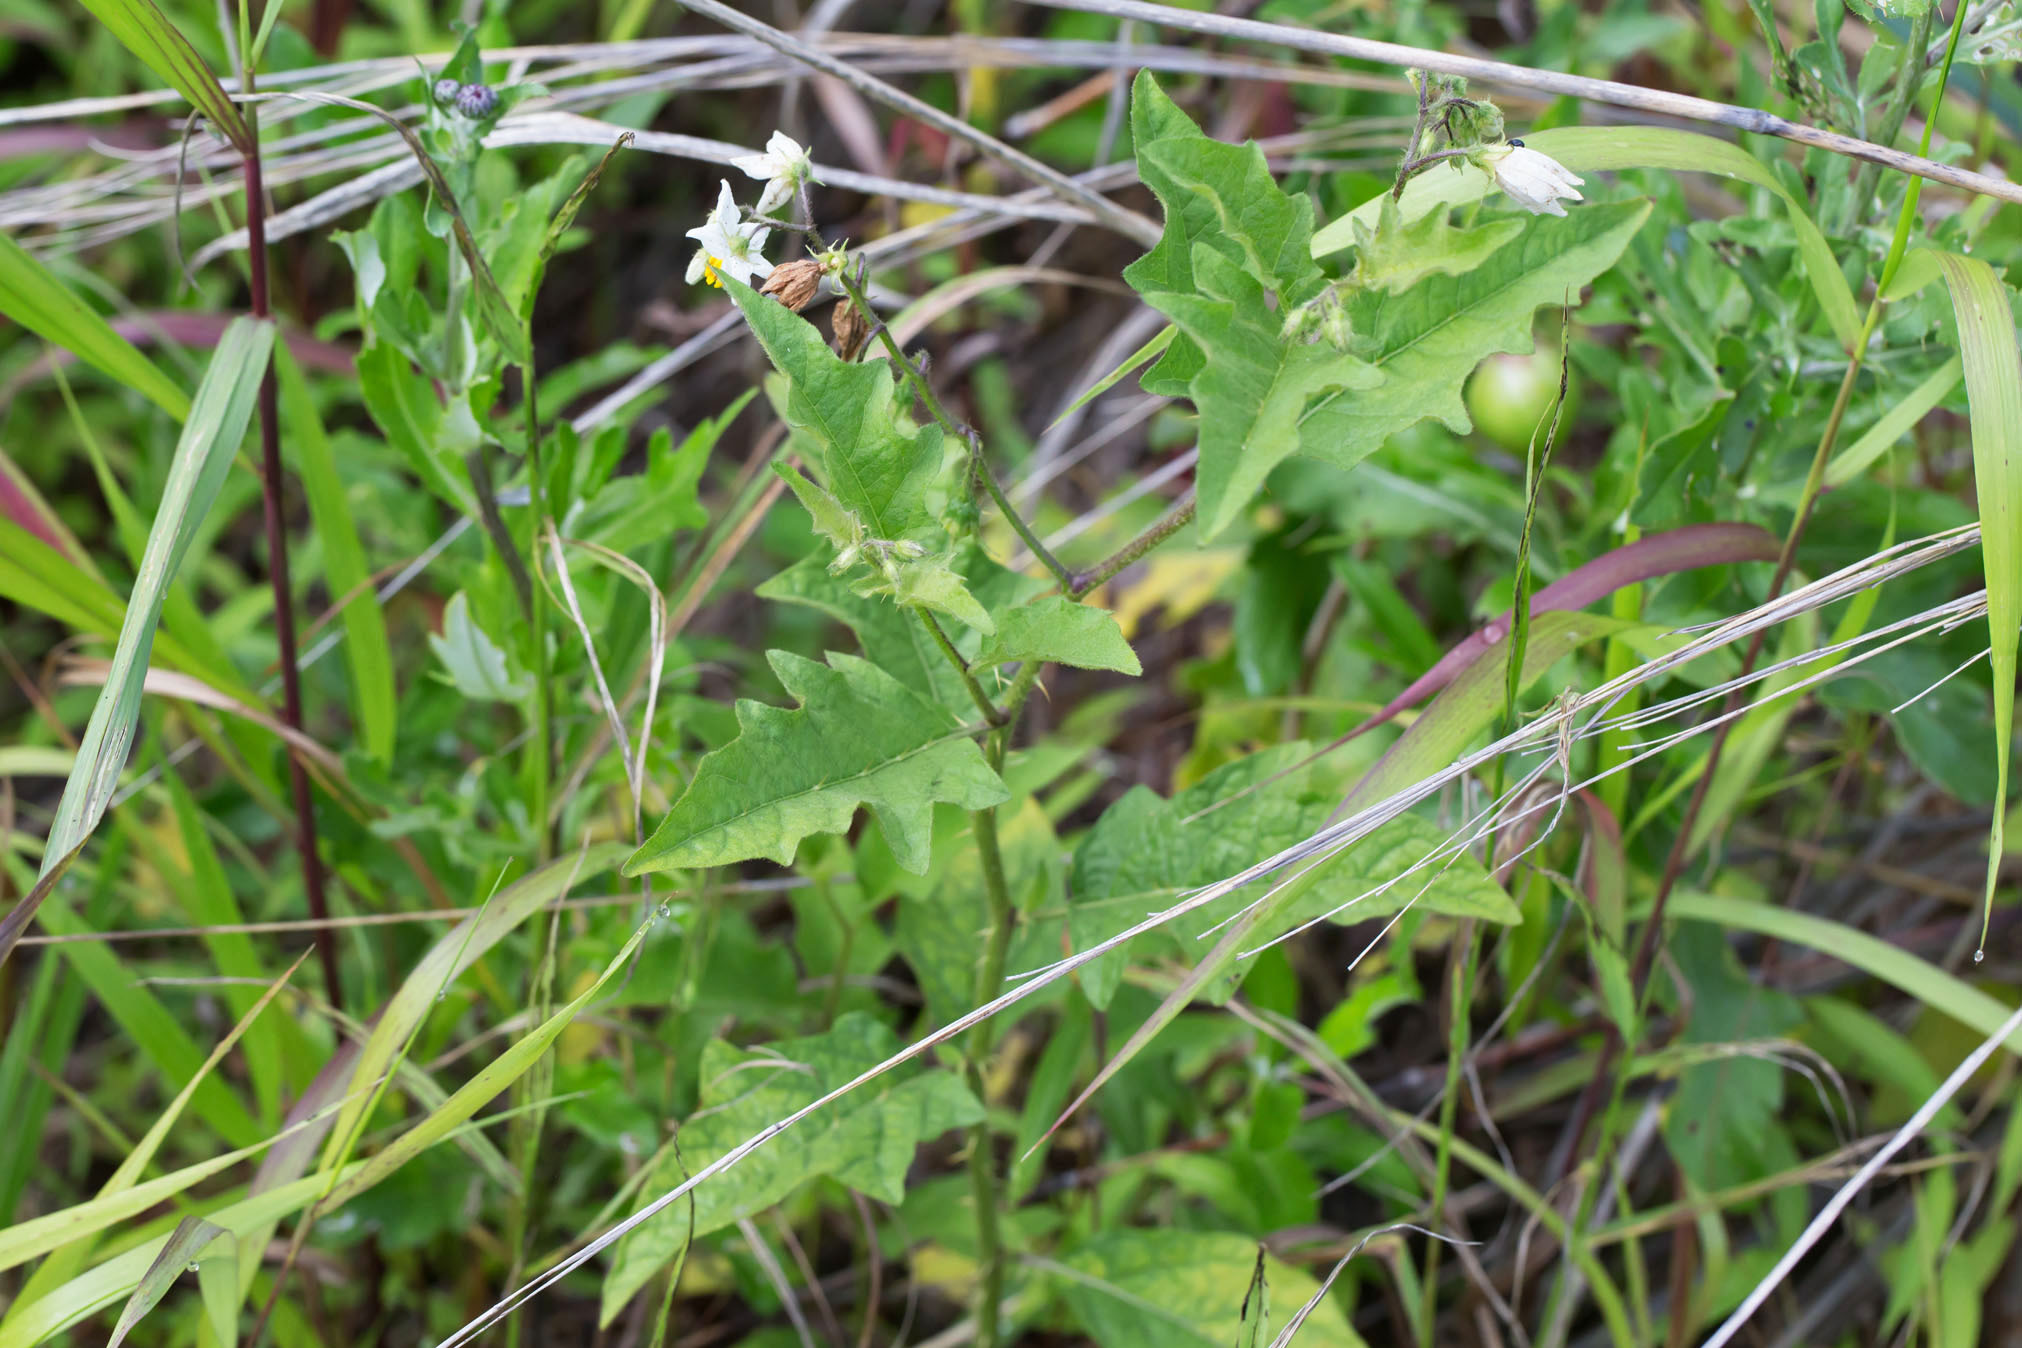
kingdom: Plantae
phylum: Tracheophyta
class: Magnoliopsida
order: Solanales
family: Solanaceae
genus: Solanum
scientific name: Solanum carolinense
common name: Horse-nettle
